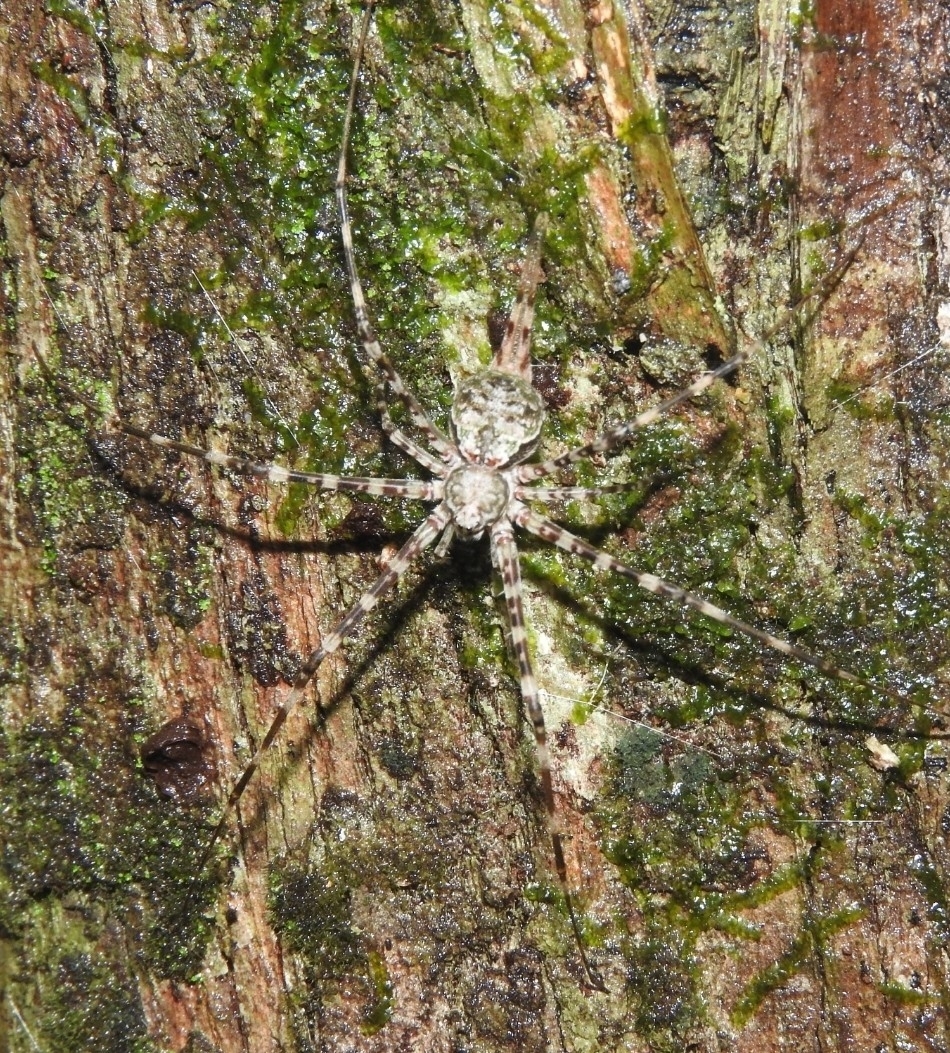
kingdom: Animalia
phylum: Arthropoda
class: Arachnida
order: Araneae
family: Hersiliidae
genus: Neotama
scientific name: Neotama mexicana
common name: Tree trunk spiders
